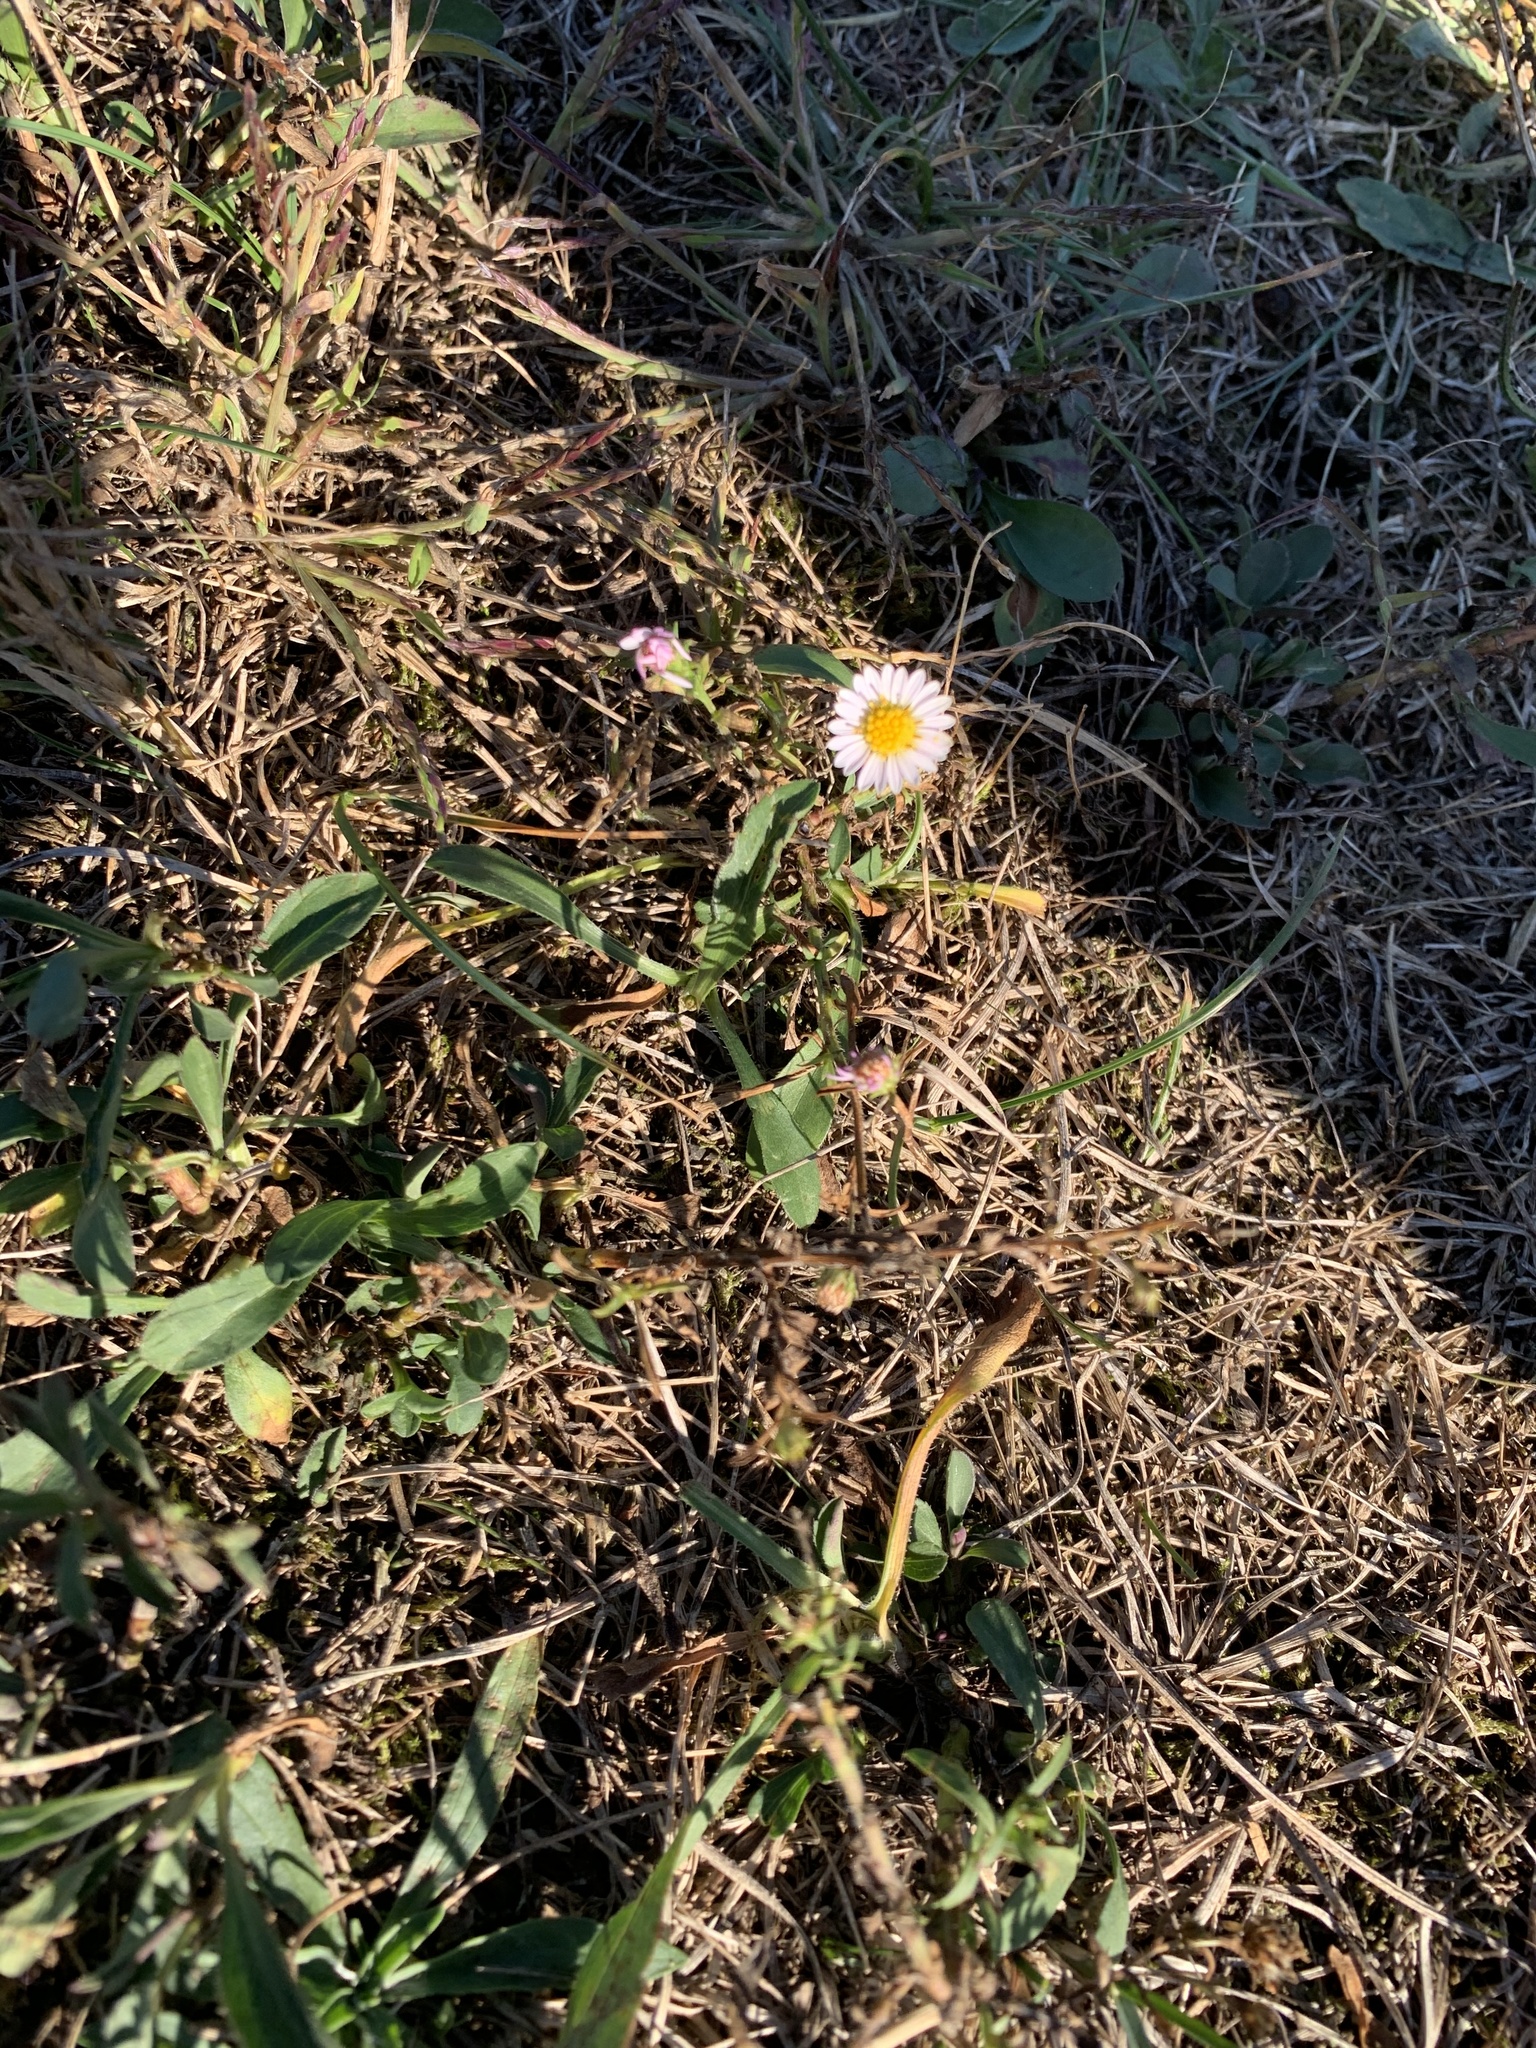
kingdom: Plantae
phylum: Tracheophyta
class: Magnoliopsida
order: Asterales
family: Asteraceae
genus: Bellis
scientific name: Bellis perennis
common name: Lawndaisy
